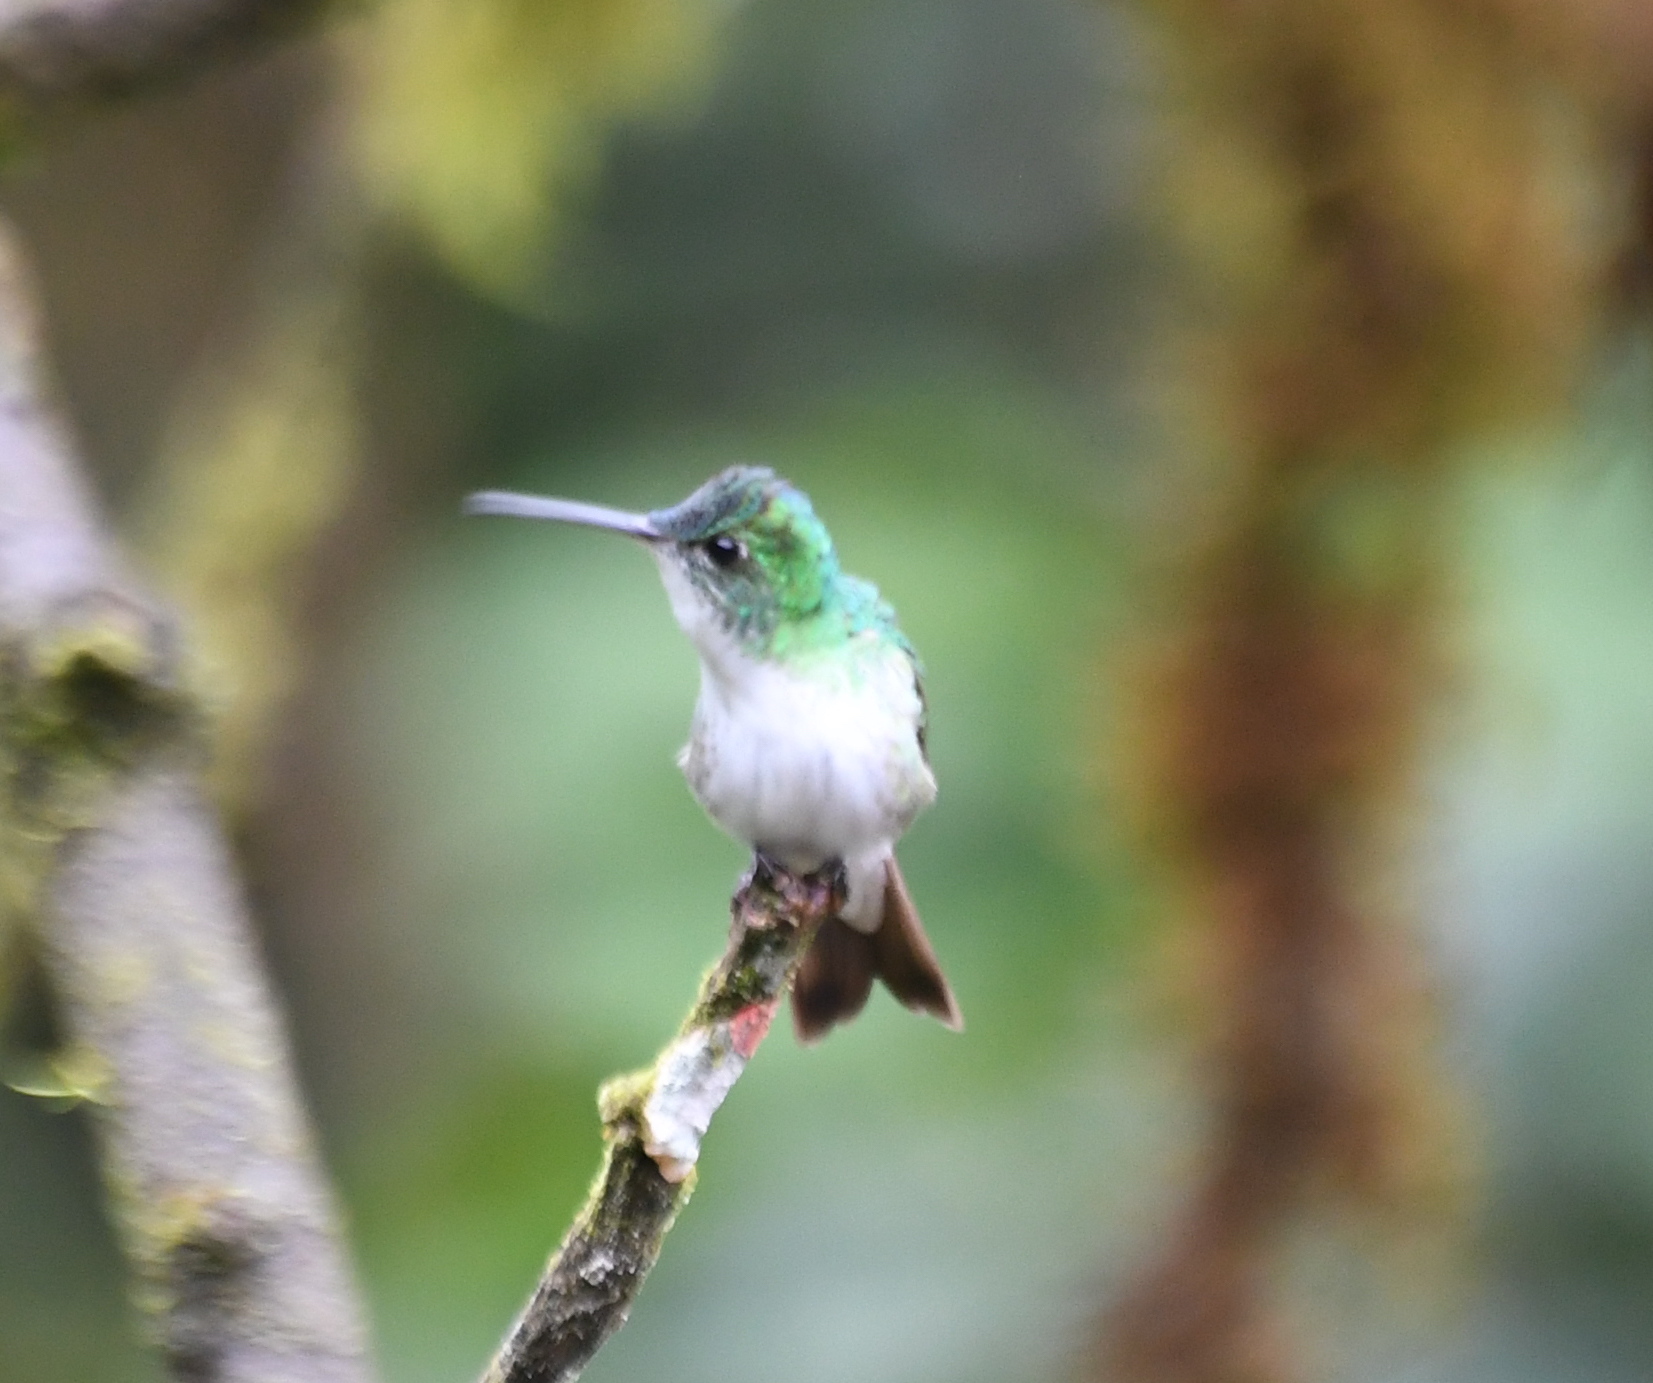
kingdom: Animalia
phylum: Chordata
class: Aves
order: Apodiformes
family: Trochilidae
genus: Uranomitra
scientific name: Uranomitra franciae
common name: Andean emerald
